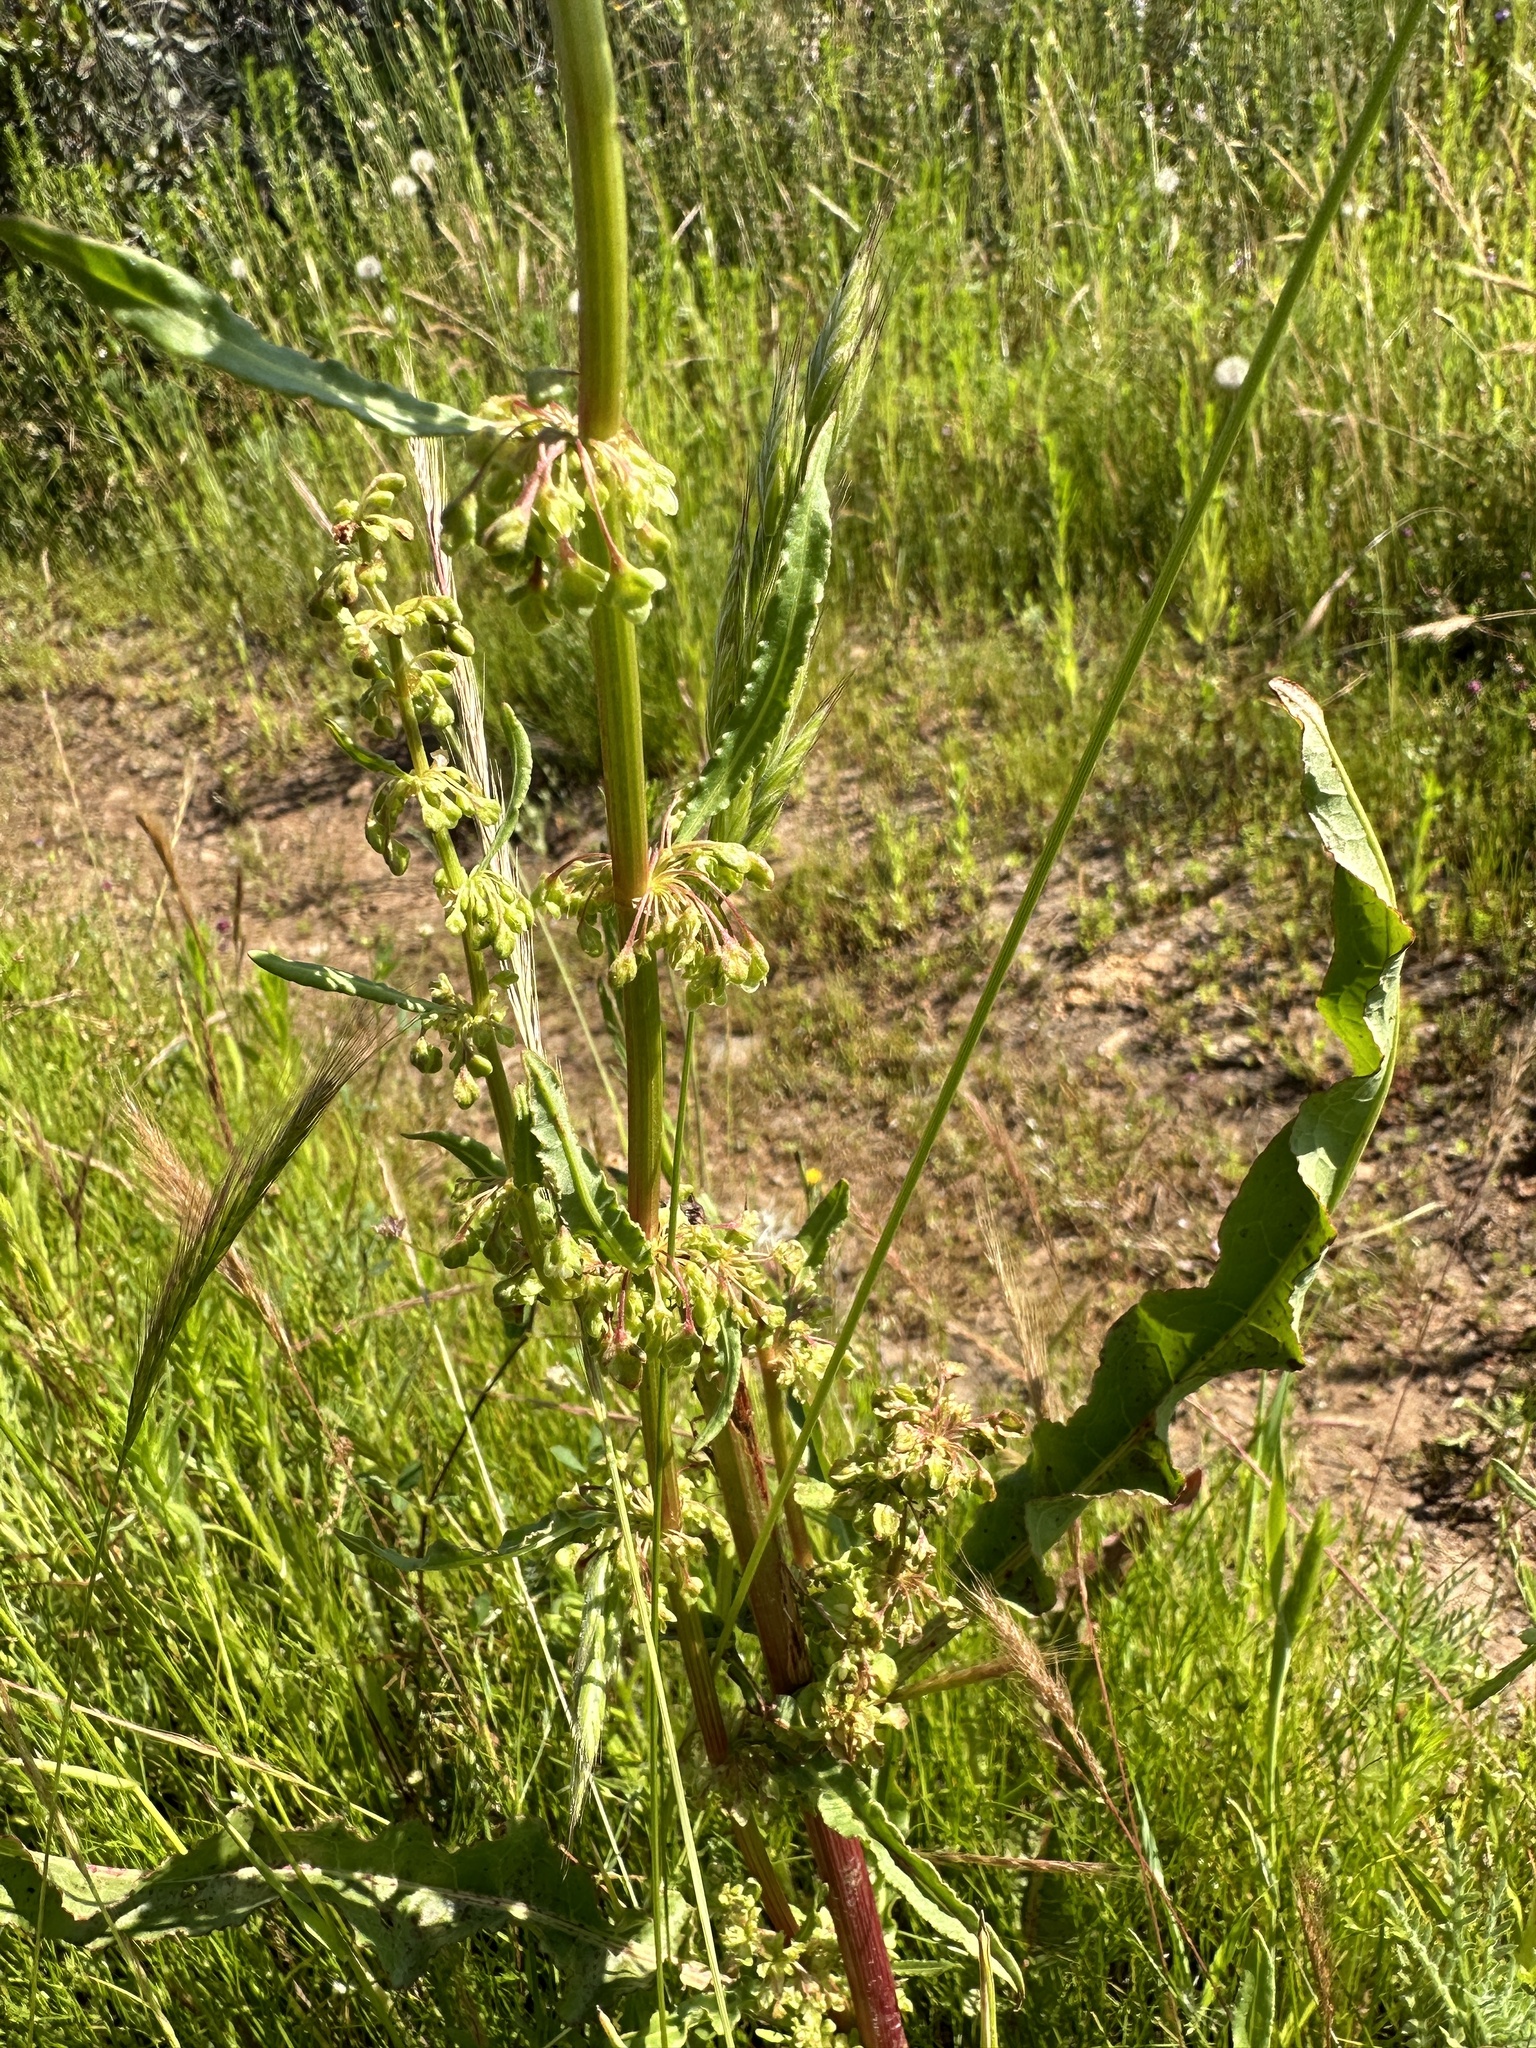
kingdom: Plantae
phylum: Tracheophyta
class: Magnoliopsida
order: Caryophyllales
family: Polygonaceae
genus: Rumex
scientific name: Rumex crispus
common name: Curled dock
